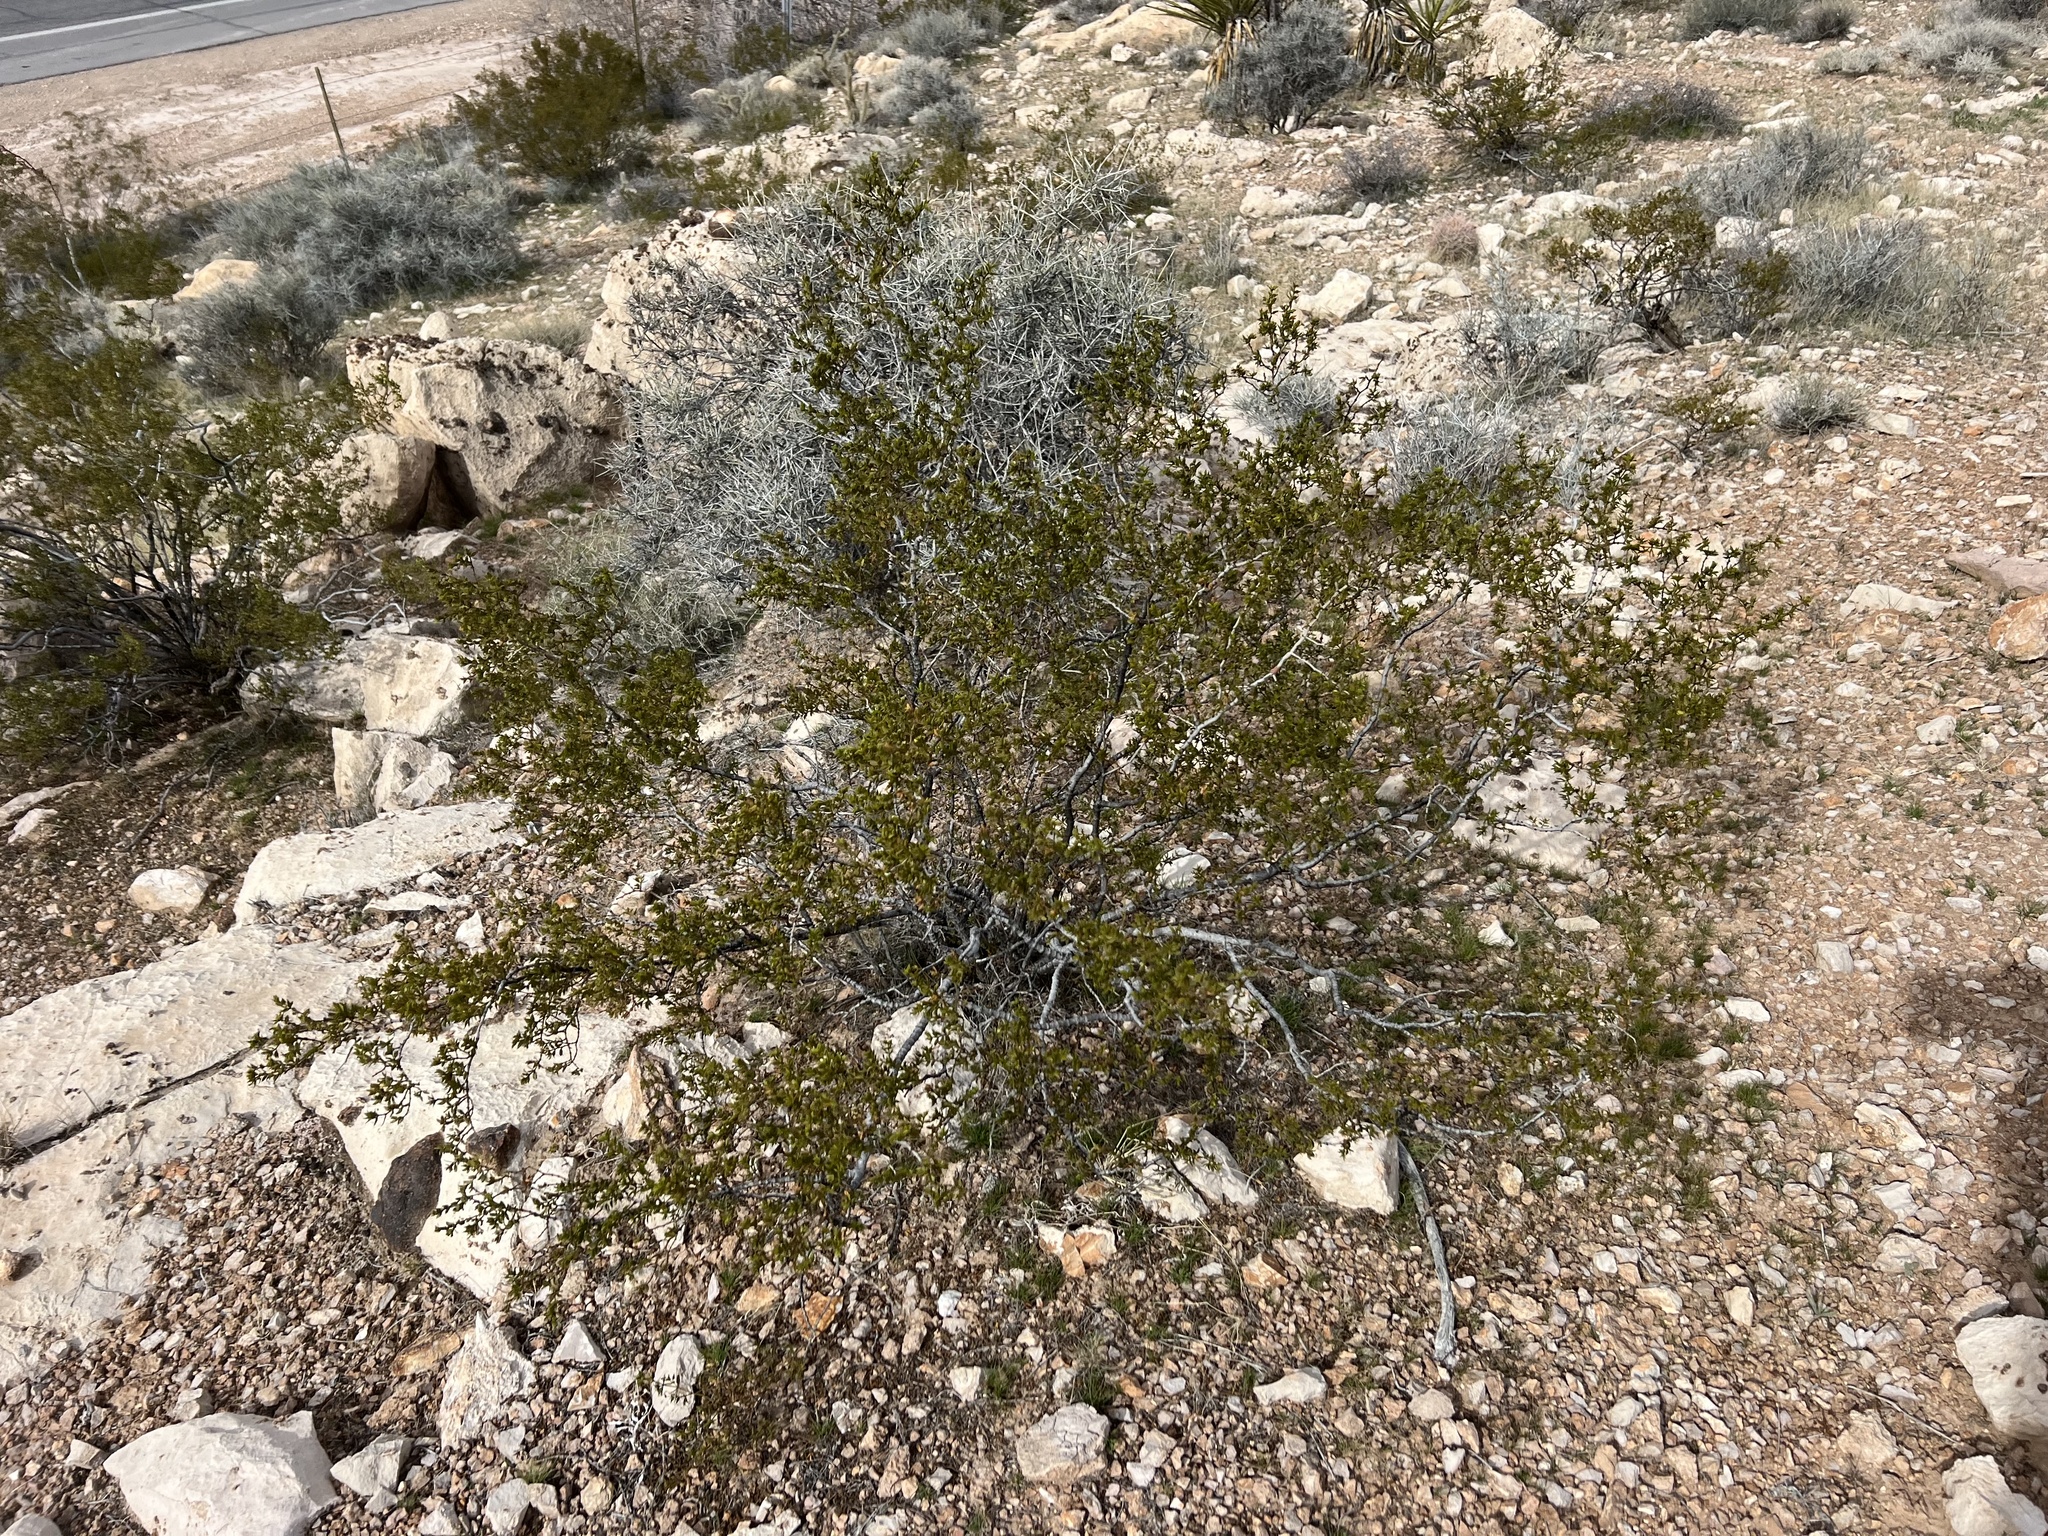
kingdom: Plantae
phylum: Tracheophyta
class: Magnoliopsida
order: Zygophyllales
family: Zygophyllaceae
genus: Larrea
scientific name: Larrea tridentata
